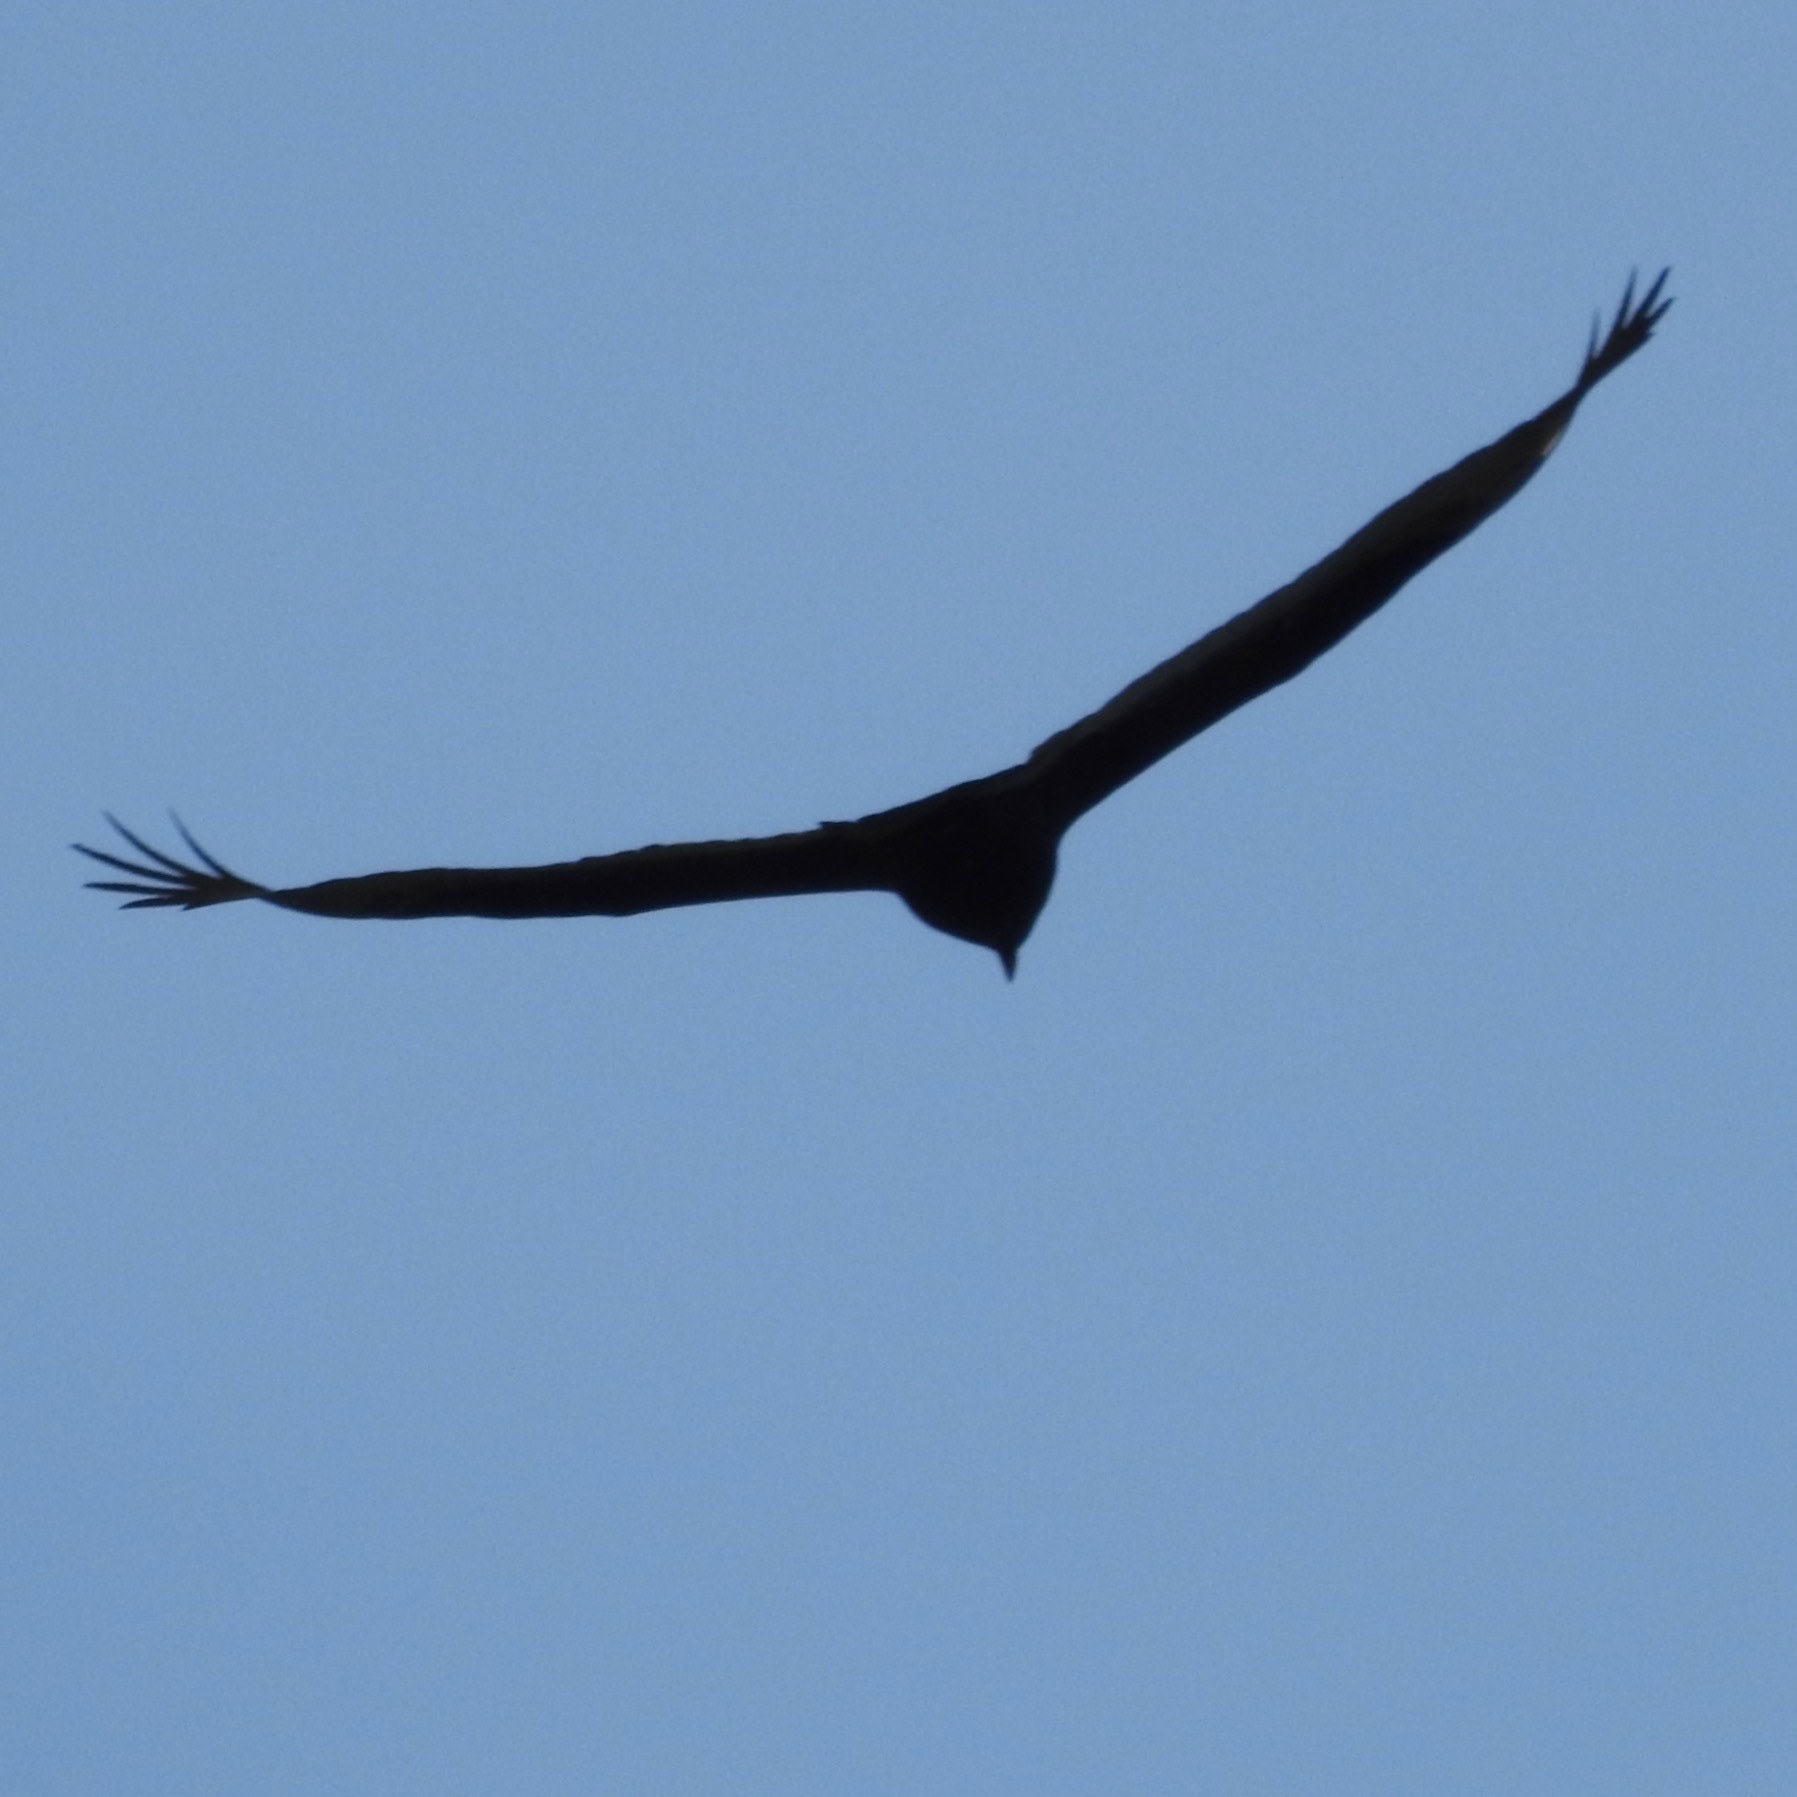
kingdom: Animalia
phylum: Chordata
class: Aves
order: Accipitriformes
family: Cathartidae
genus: Cathartes
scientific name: Cathartes aura
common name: Turkey vulture
